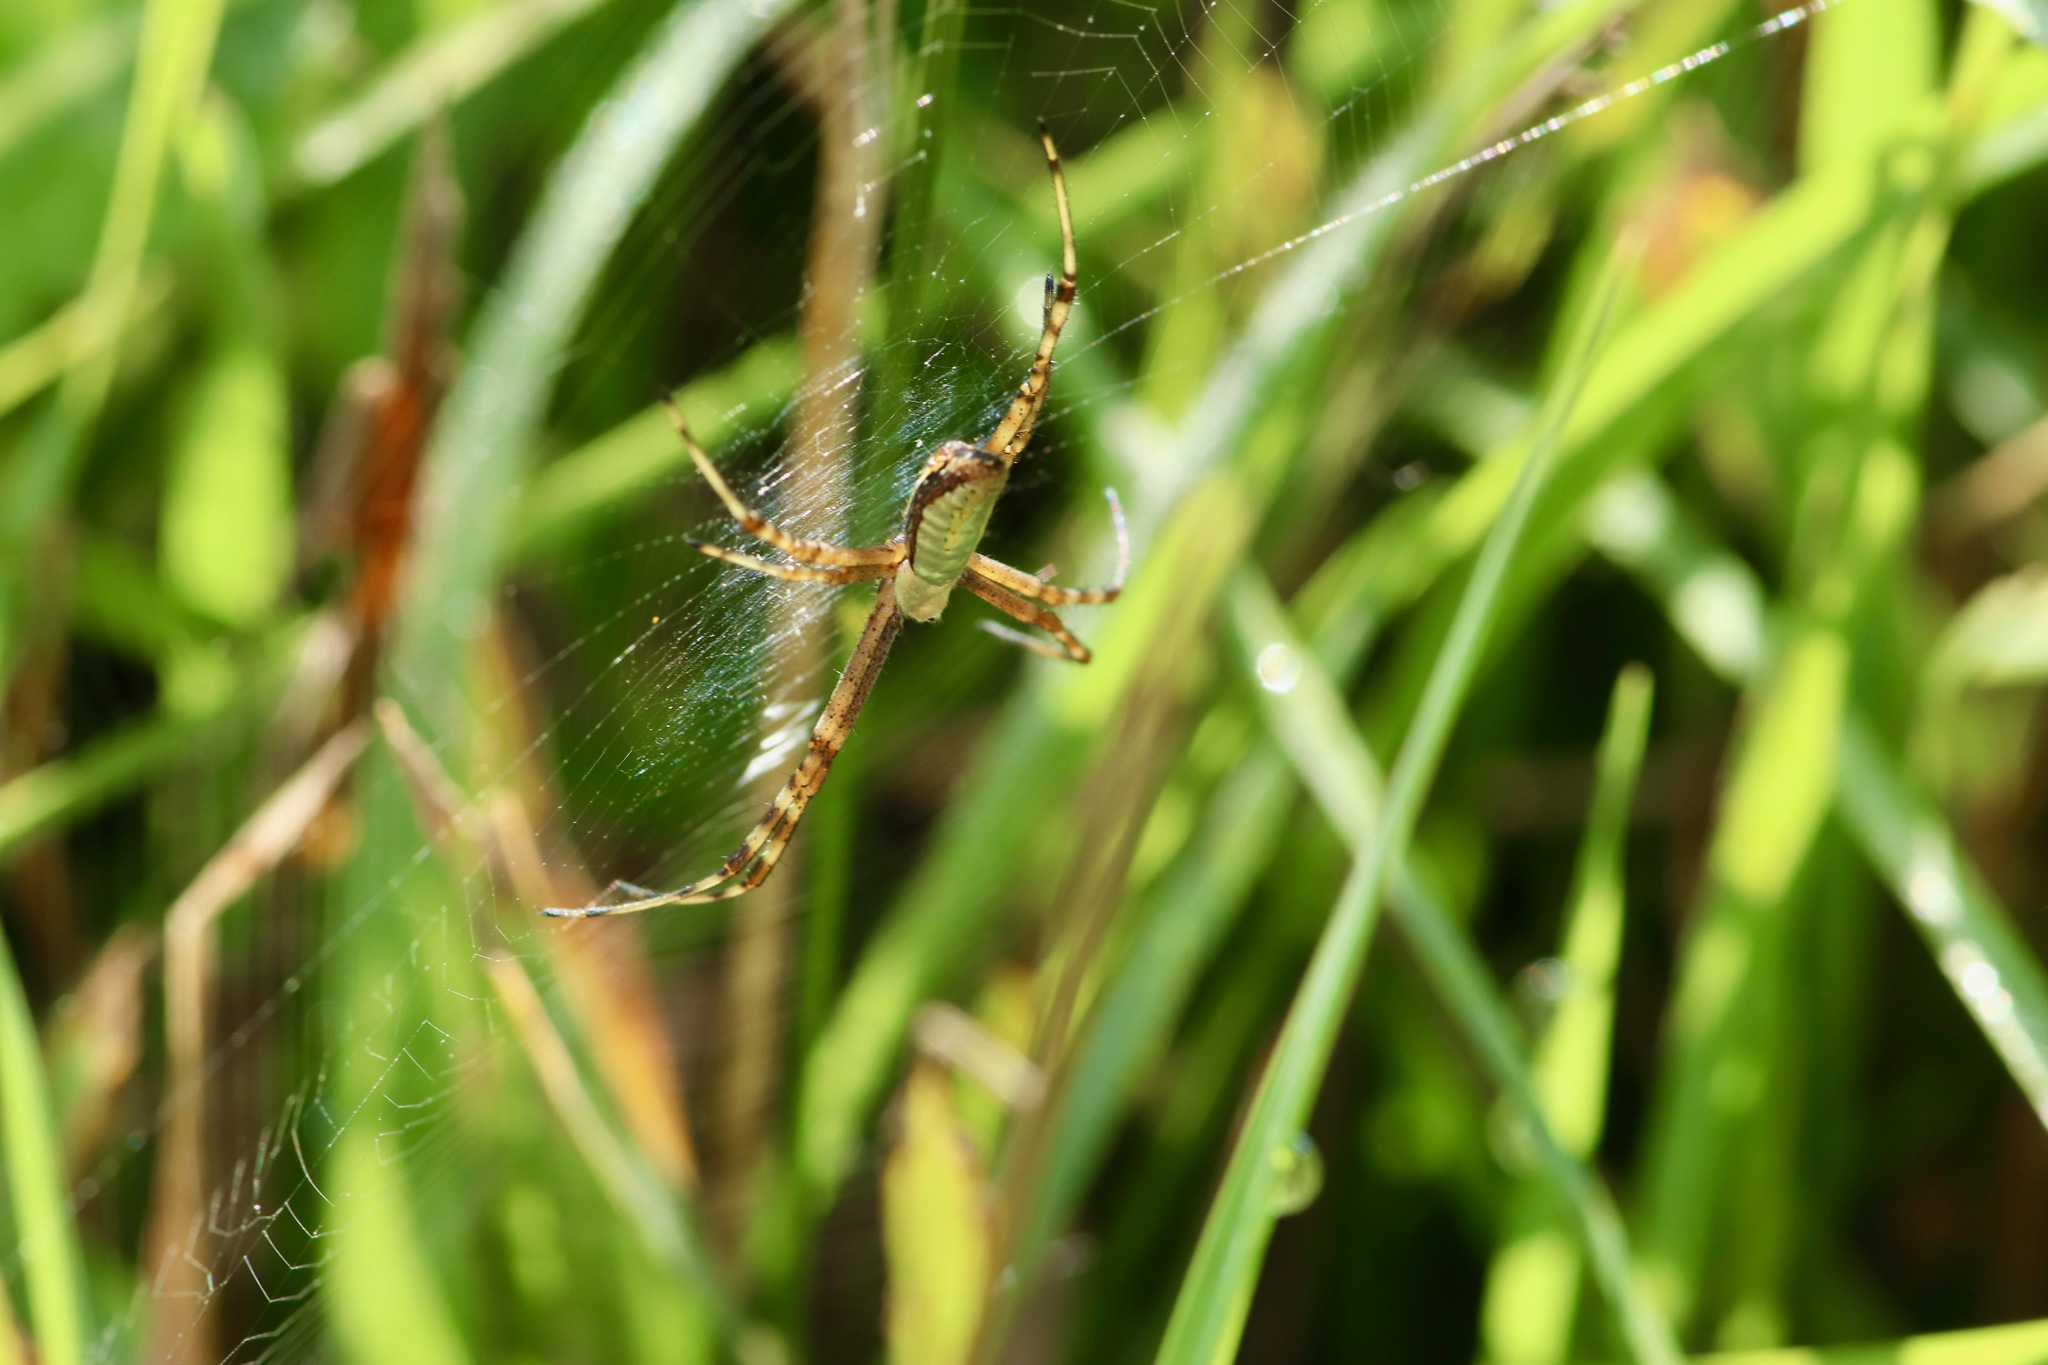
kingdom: Animalia
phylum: Arthropoda
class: Arachnida
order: Araneae
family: Araneidae
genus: Argiope
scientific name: Argiope trifasciata
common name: Banded garden spider
